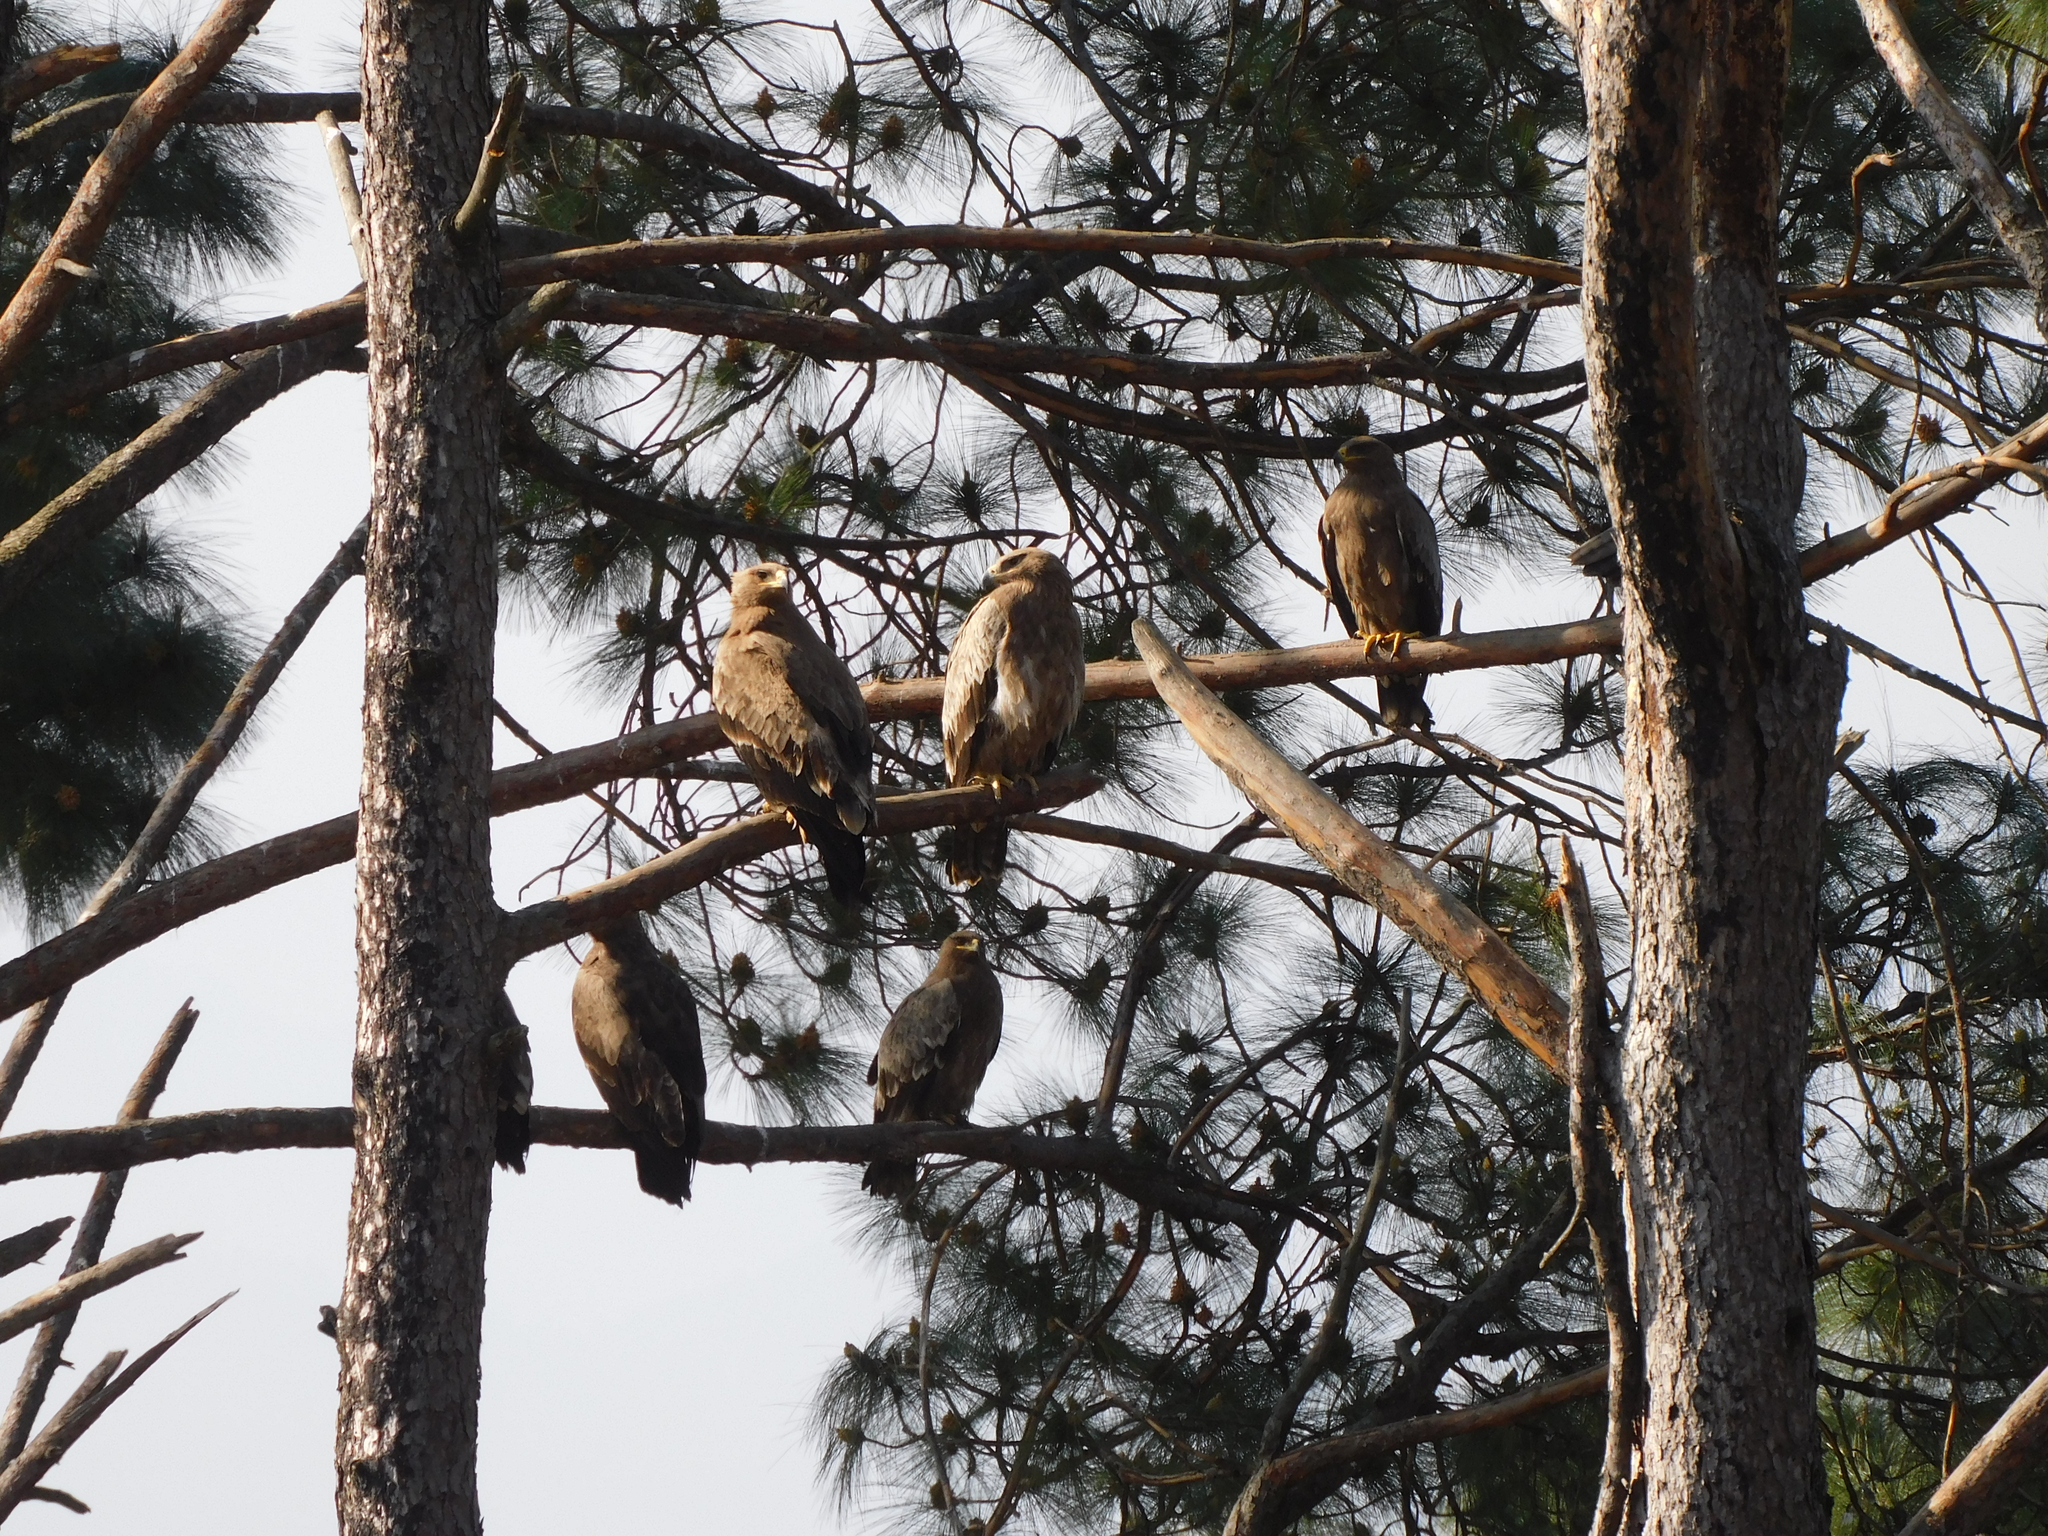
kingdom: Animalia
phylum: Chordata
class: Aves
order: Accipitriformes
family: Accipitridae
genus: Aquila
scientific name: Aquila nipalensis
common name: Steppe eagle
